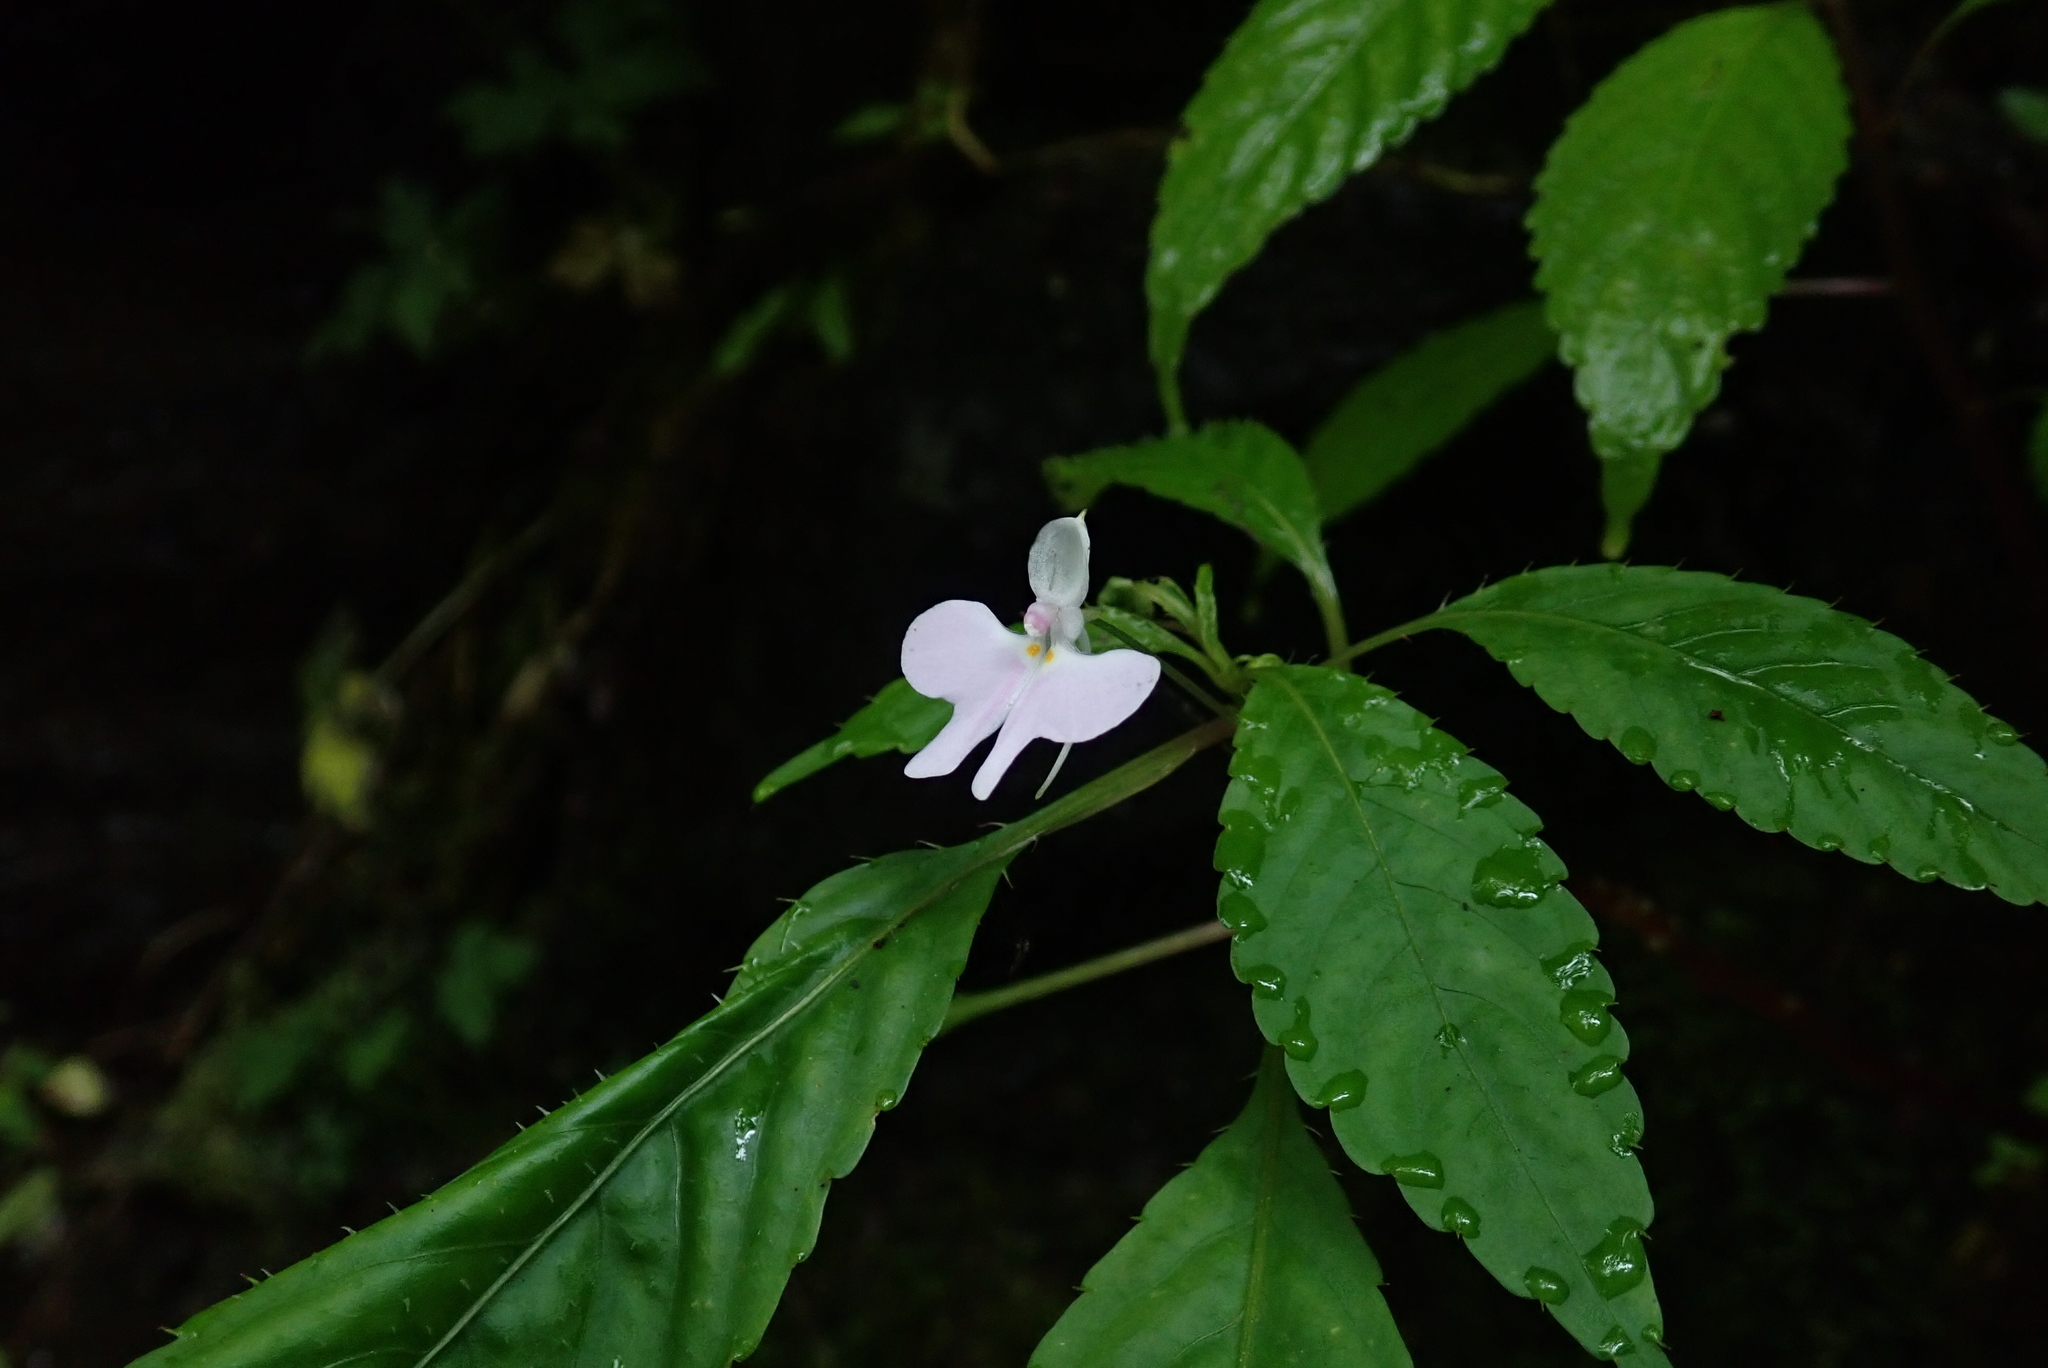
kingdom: Plantae
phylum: Tracheophyta
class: Magnoliopsida
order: Ericales
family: Balsaminaceae
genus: Impatiens
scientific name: Impatiens hochstetteri
